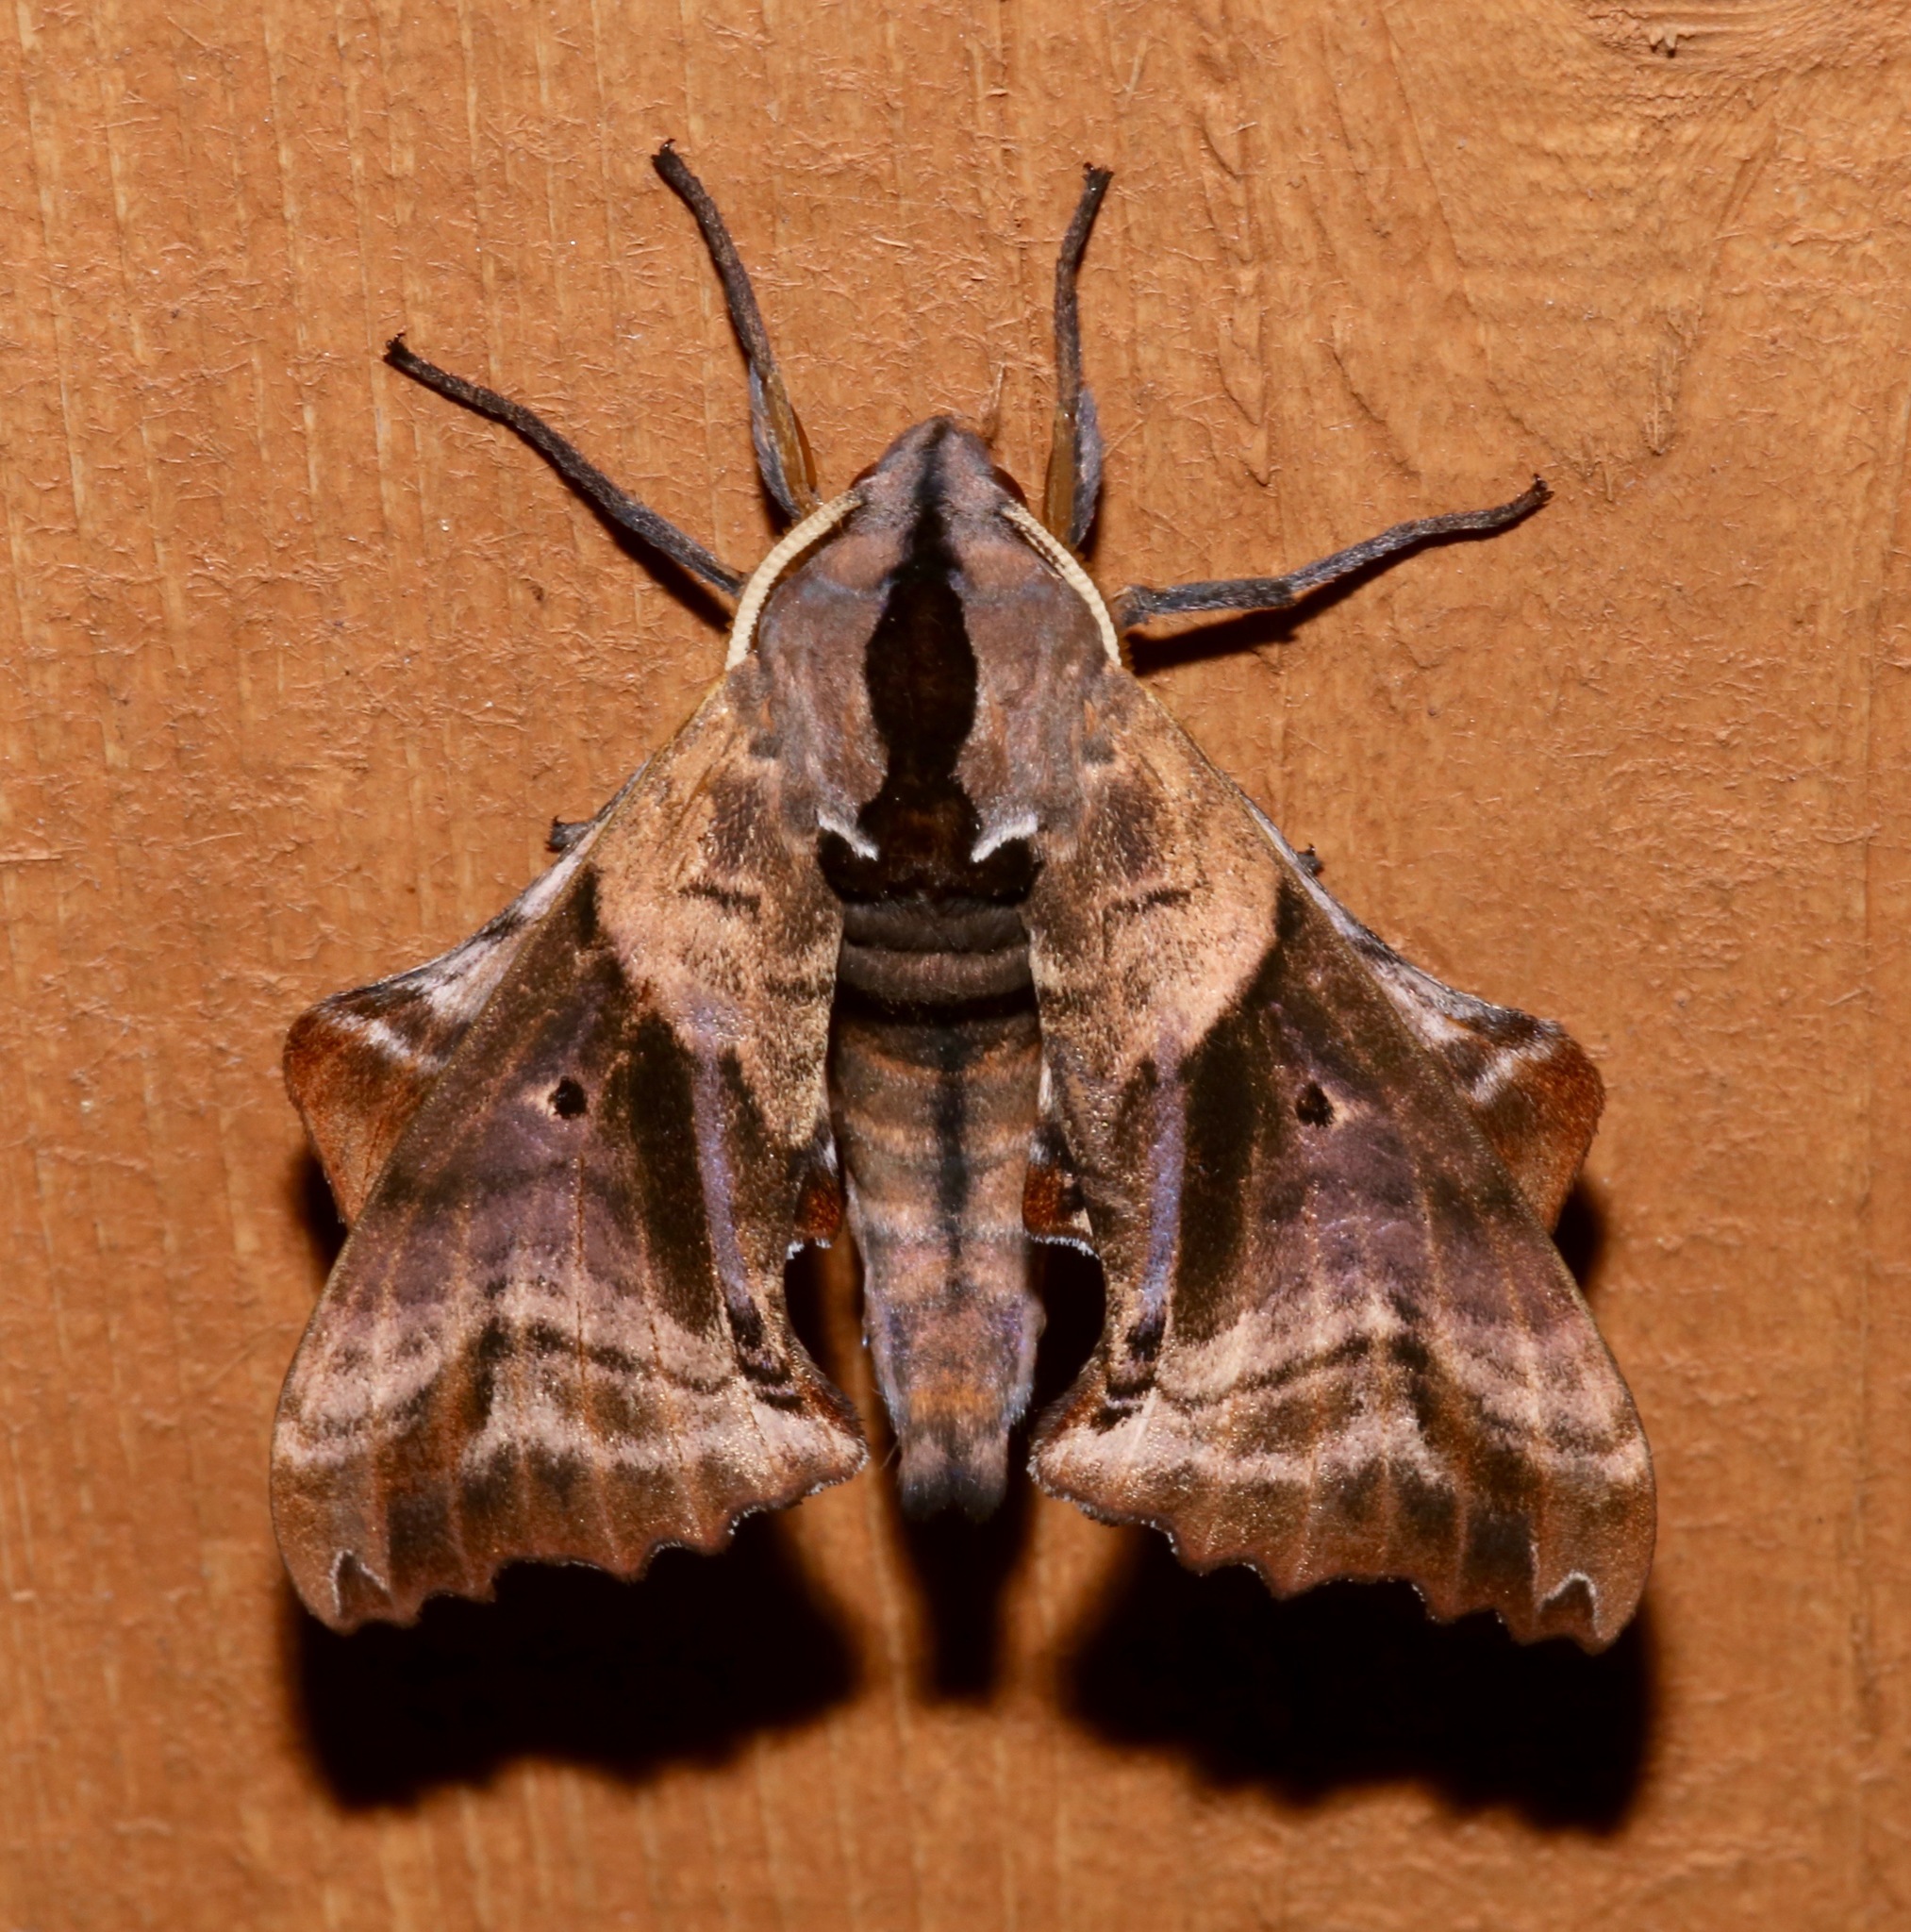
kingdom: Animalia
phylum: Arthropoda
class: Insecta
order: Lepidoptera
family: Sphingidae
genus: Paonias
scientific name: Paonias excaecata
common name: Blind-eyed sphinx
